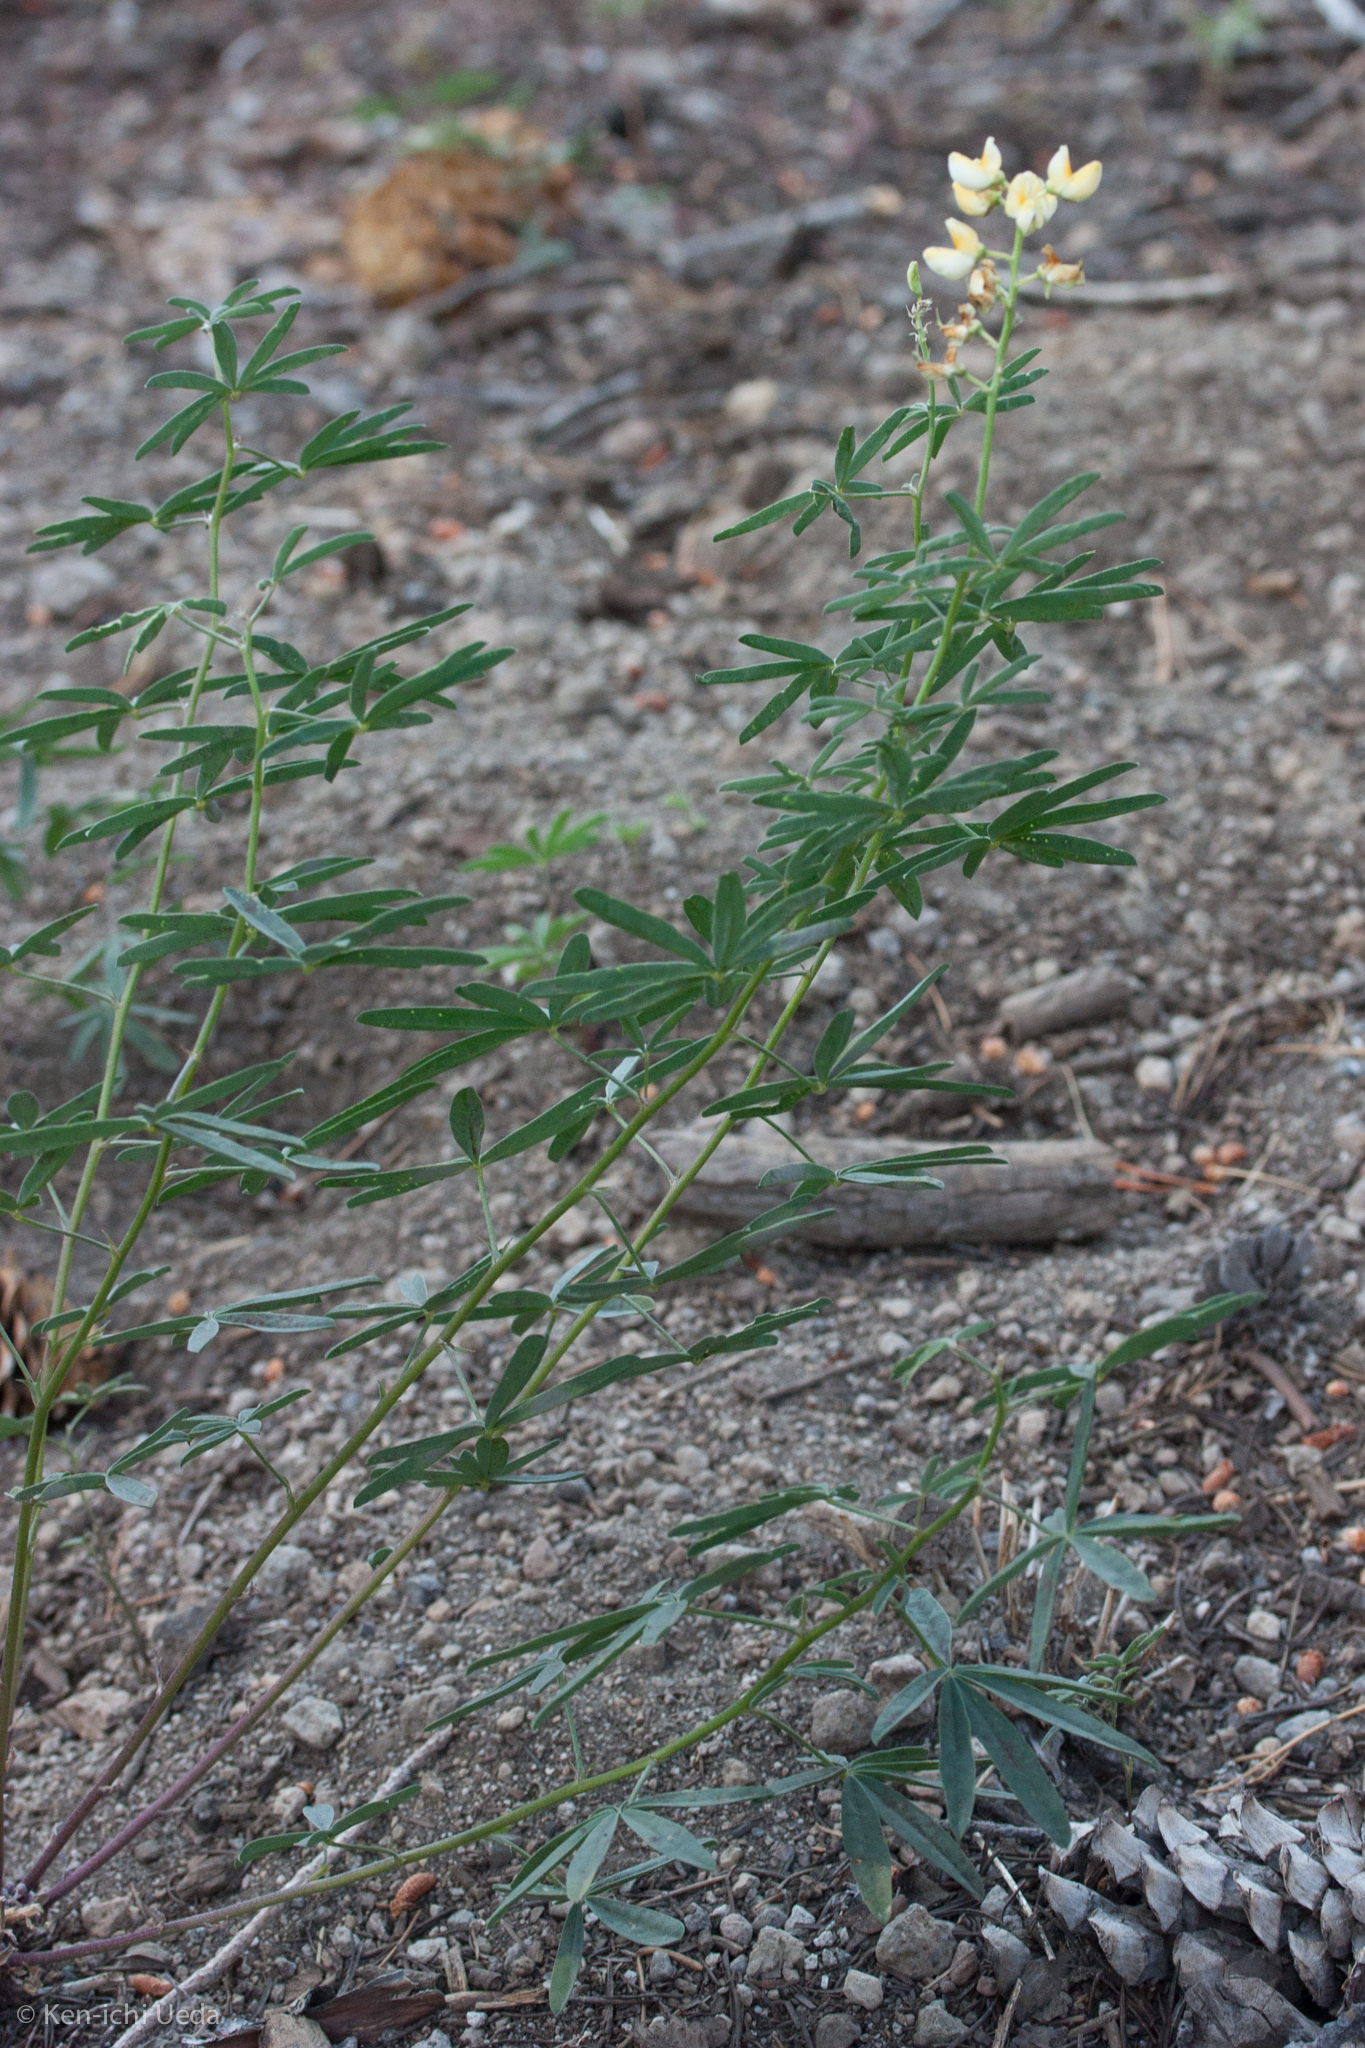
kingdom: Plantae
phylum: Tracheophyta
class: Magnoliopsida
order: Fabales
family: Fabaceae
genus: Lupinus
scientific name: Lupinus angustiflorus
